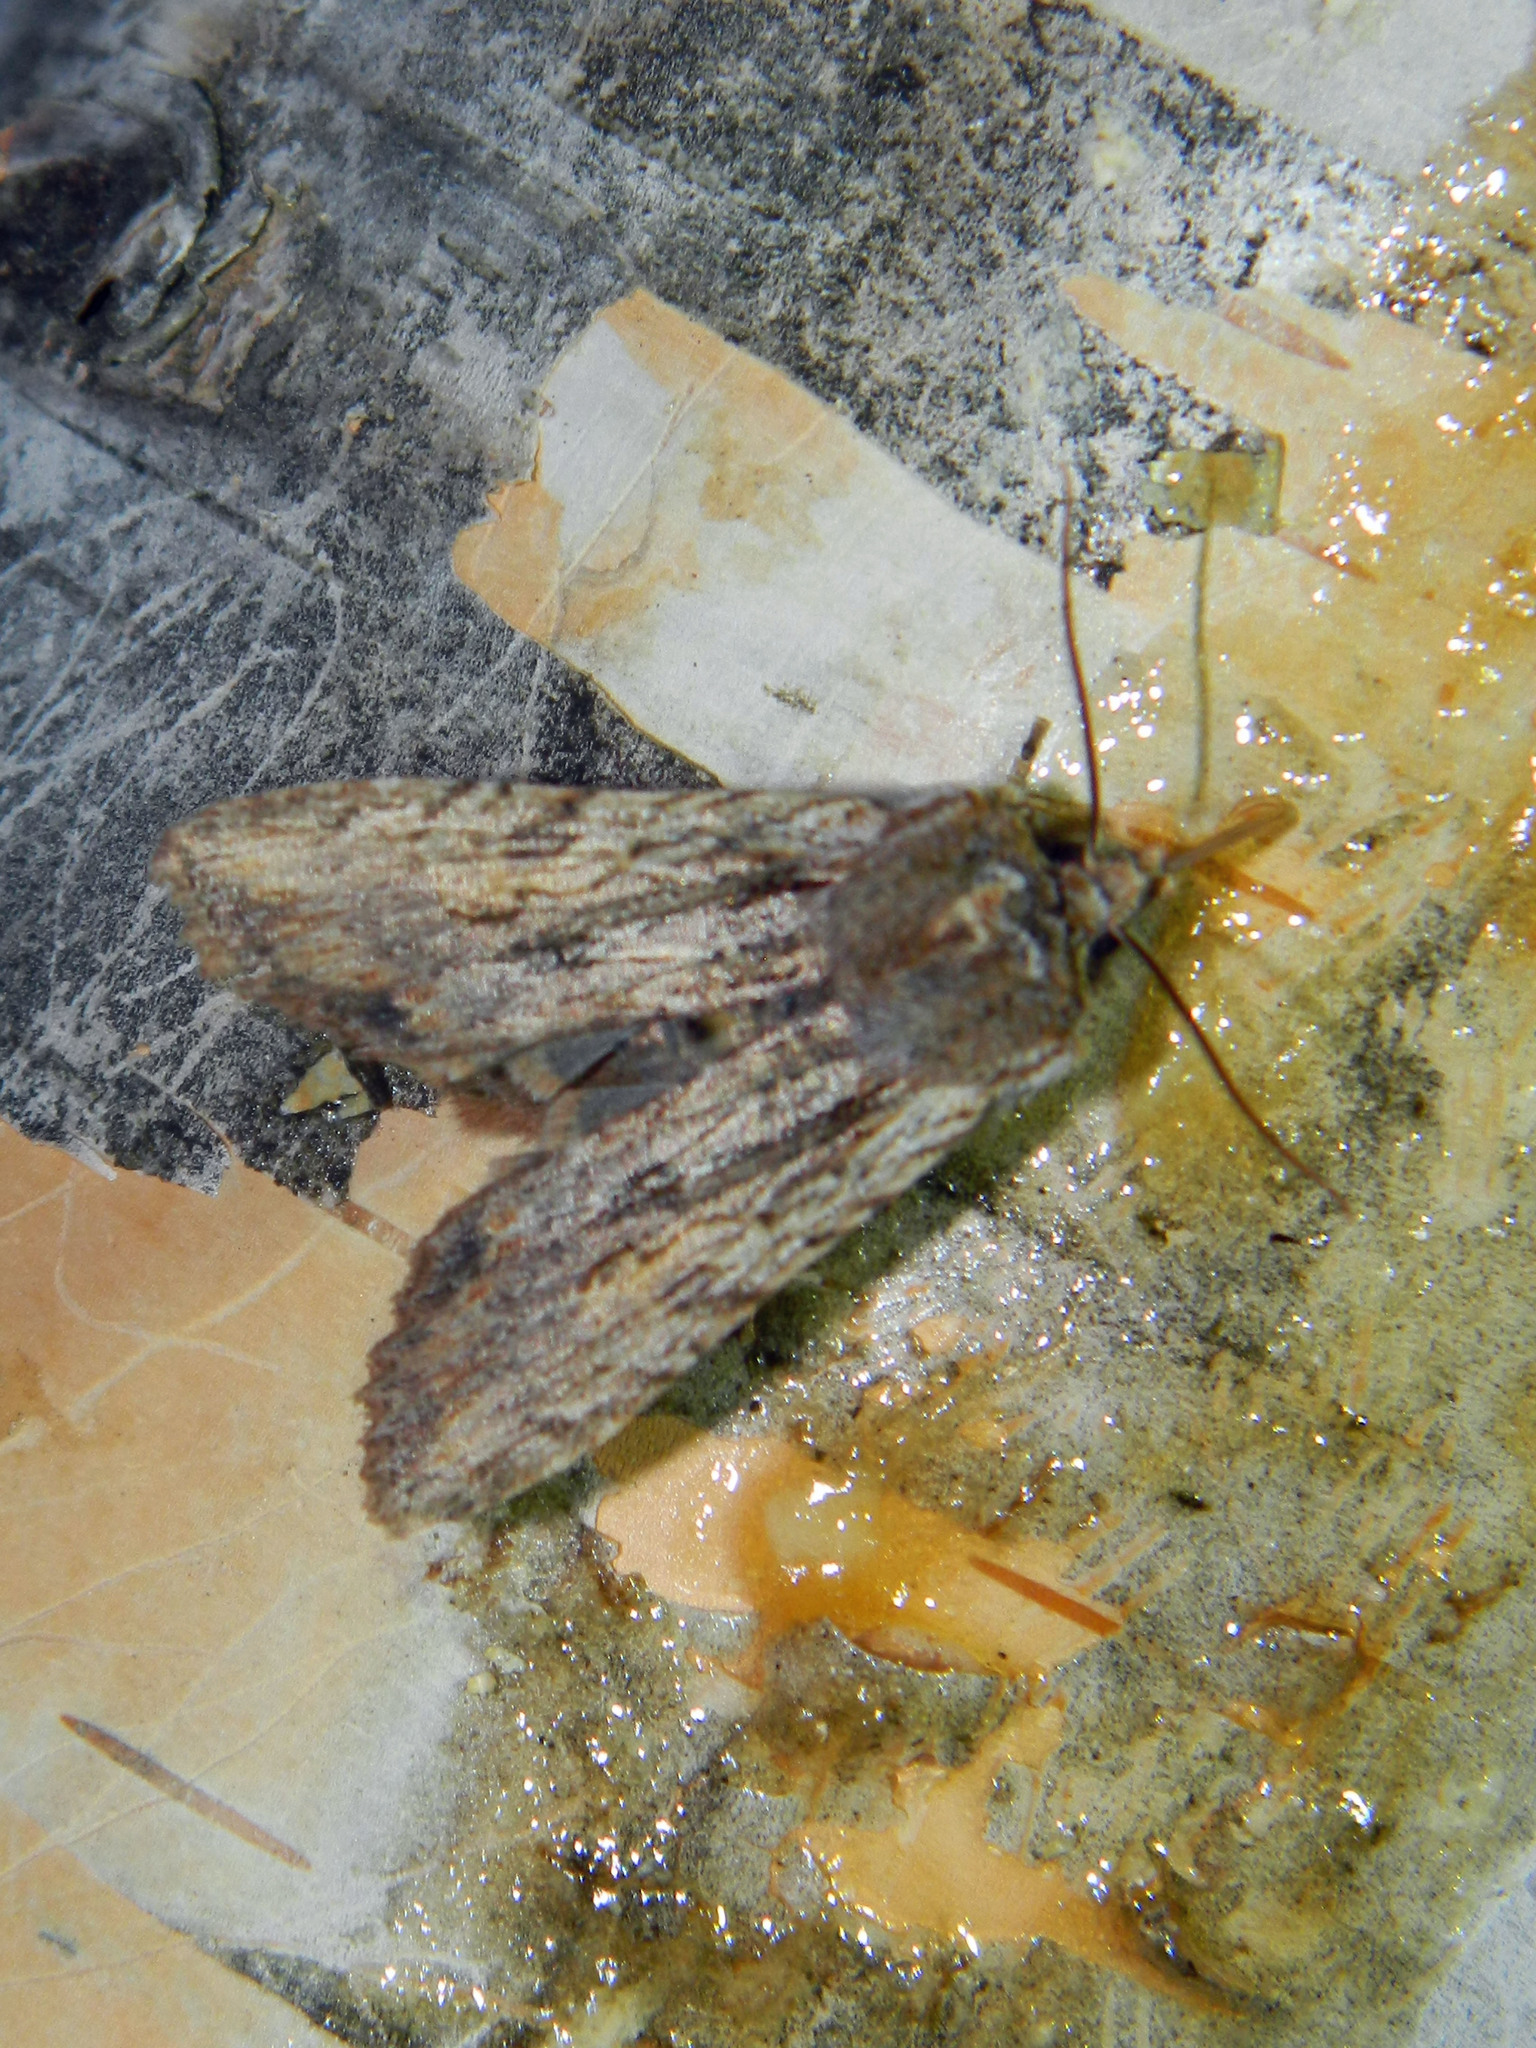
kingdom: Animalia
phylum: Arthropoda
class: Insecta
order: Lepidoptera
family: Noctuidae
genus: Lithophane
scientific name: Lithophane petulca
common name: Wanton pinion
